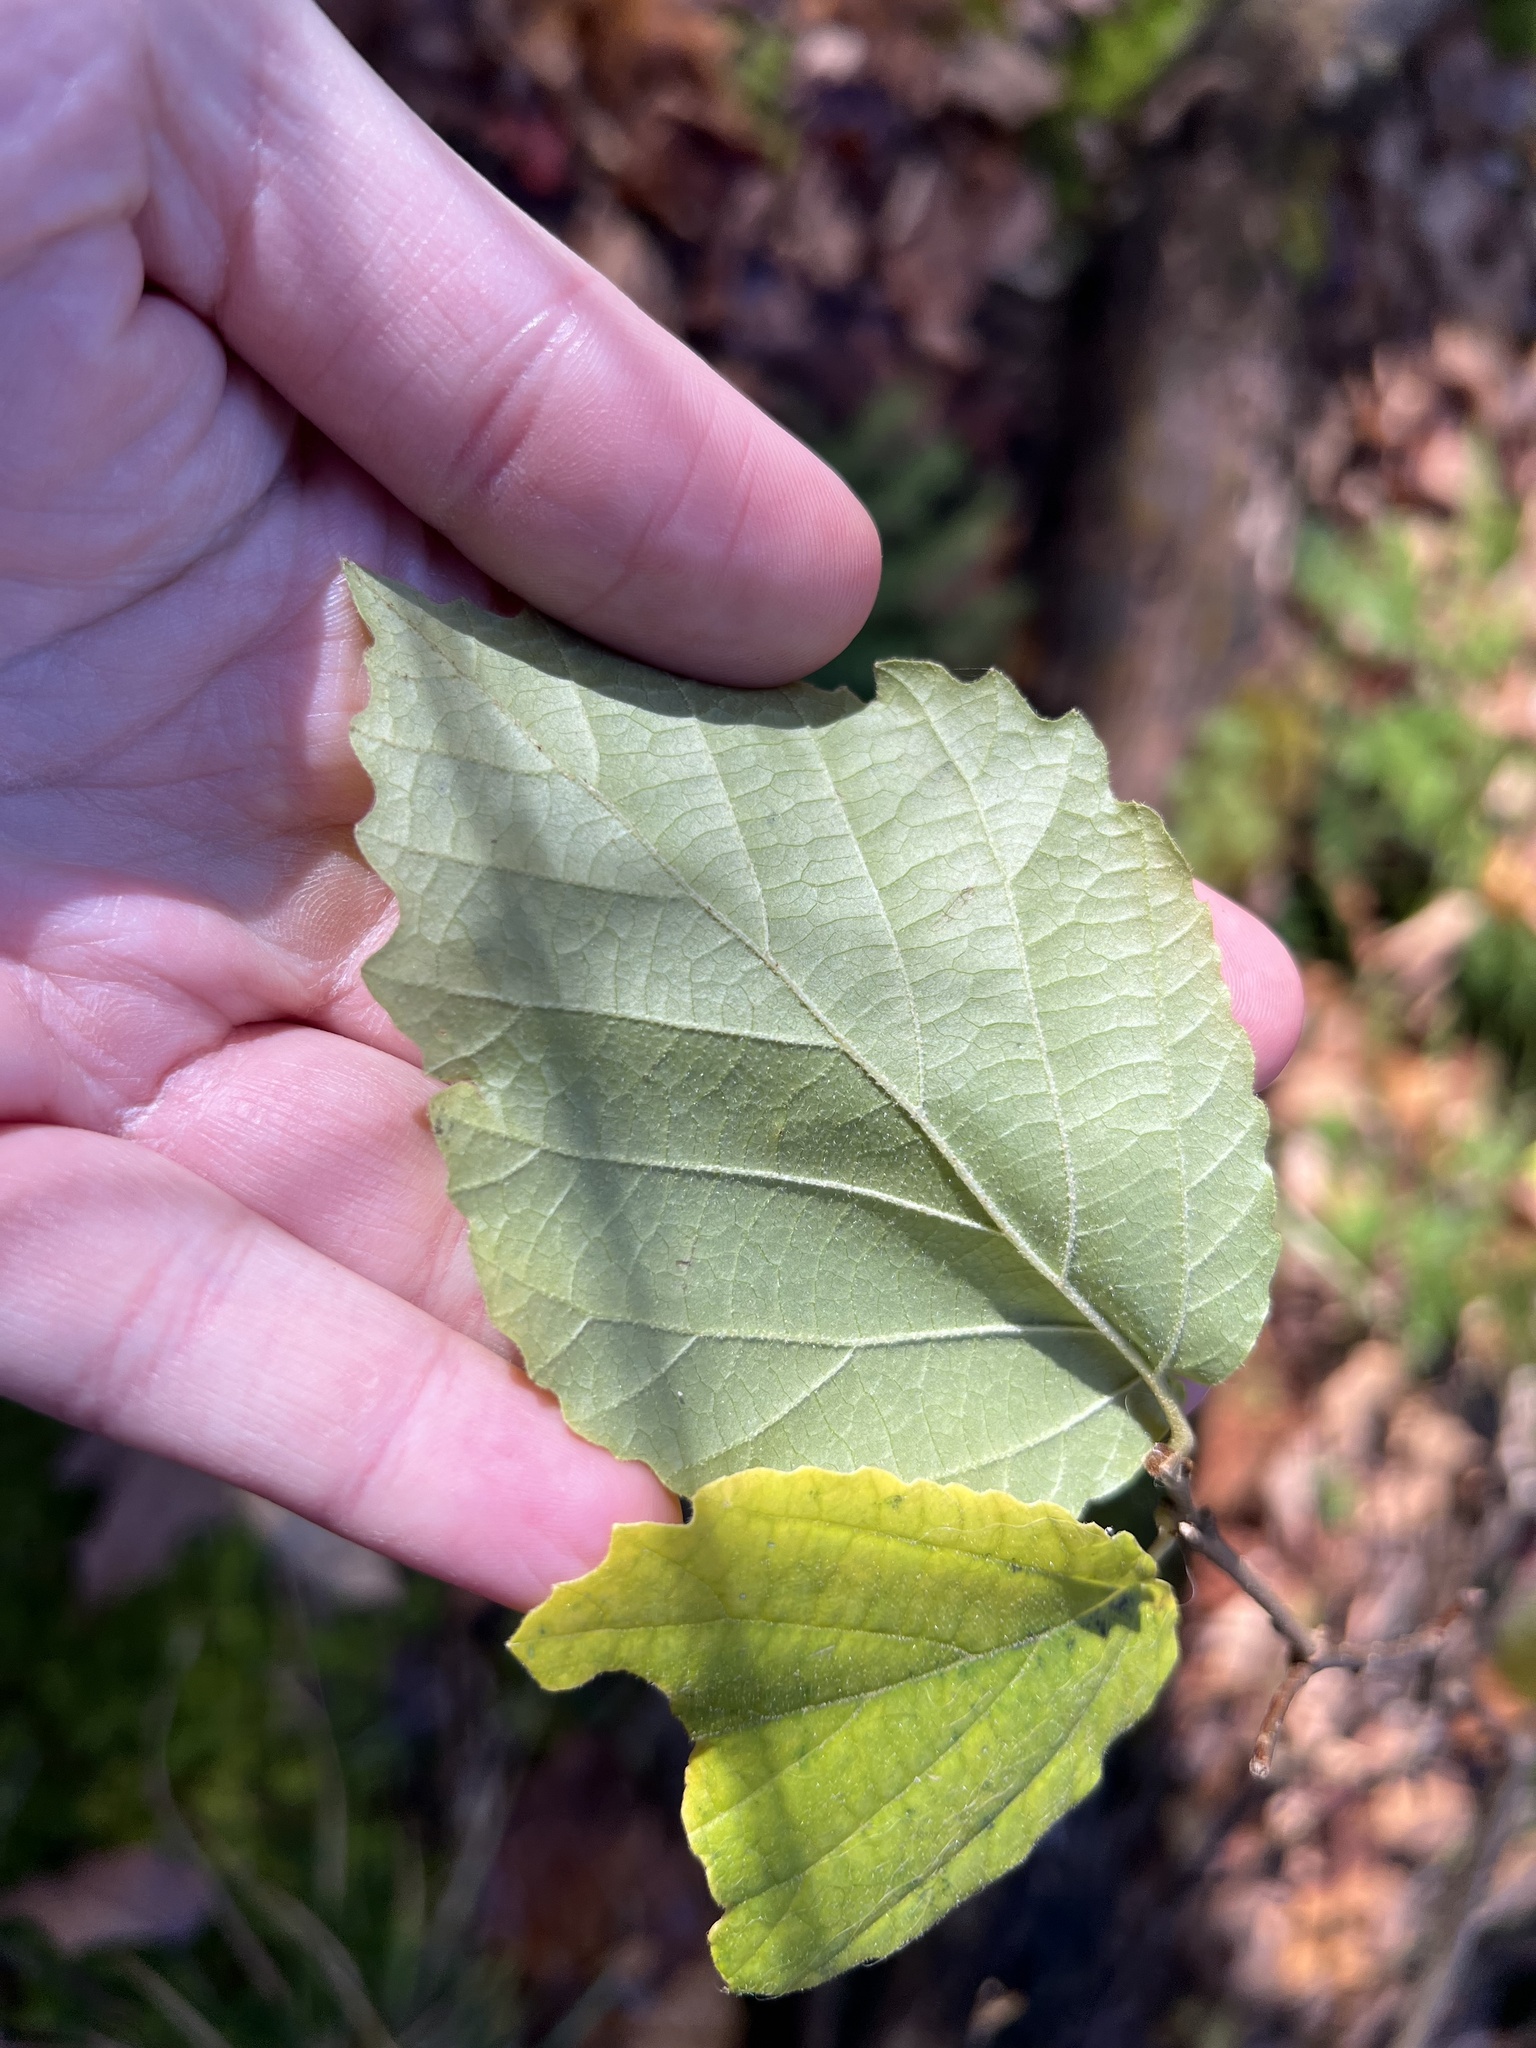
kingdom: Plantae
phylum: Tracheophyta
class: Magnoliopsida
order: Saxifragales
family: Hamamelidaceae
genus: Hamamelis
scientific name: Hamamelis virginiana
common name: Witch-hazel
